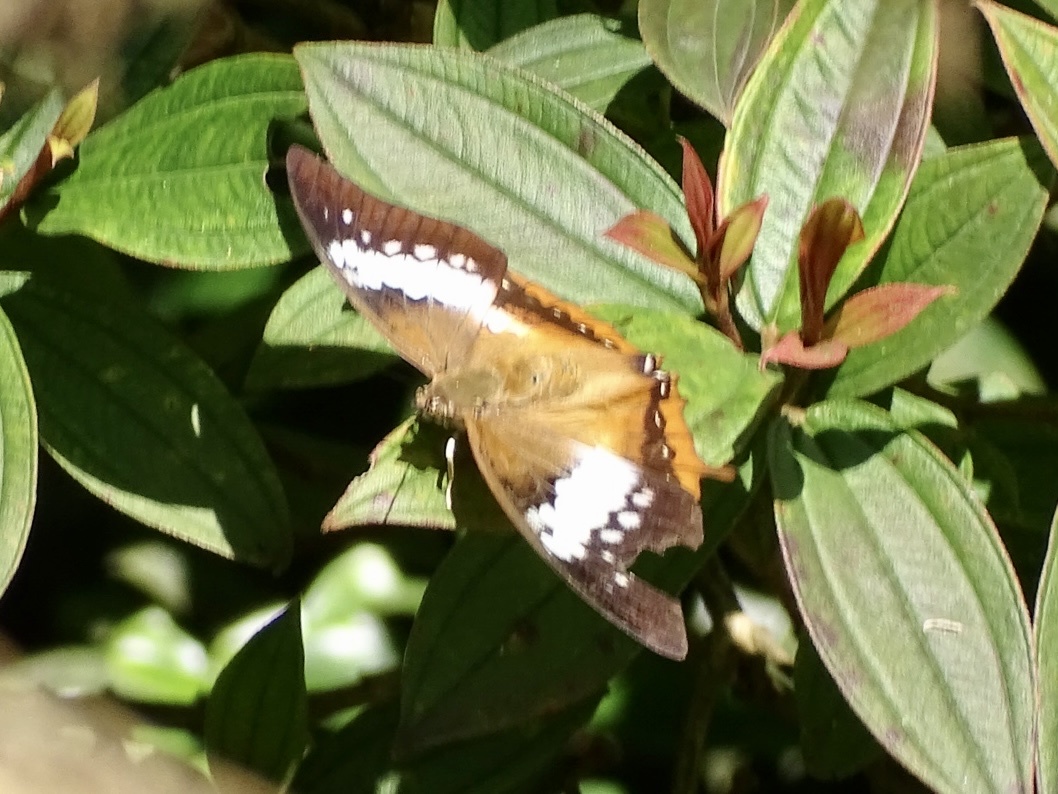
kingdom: Animalia
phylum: Arthropoda
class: Insecta
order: Lepidoptera
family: Nymphalidae
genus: Charaxes
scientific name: Charaxes bernardus
